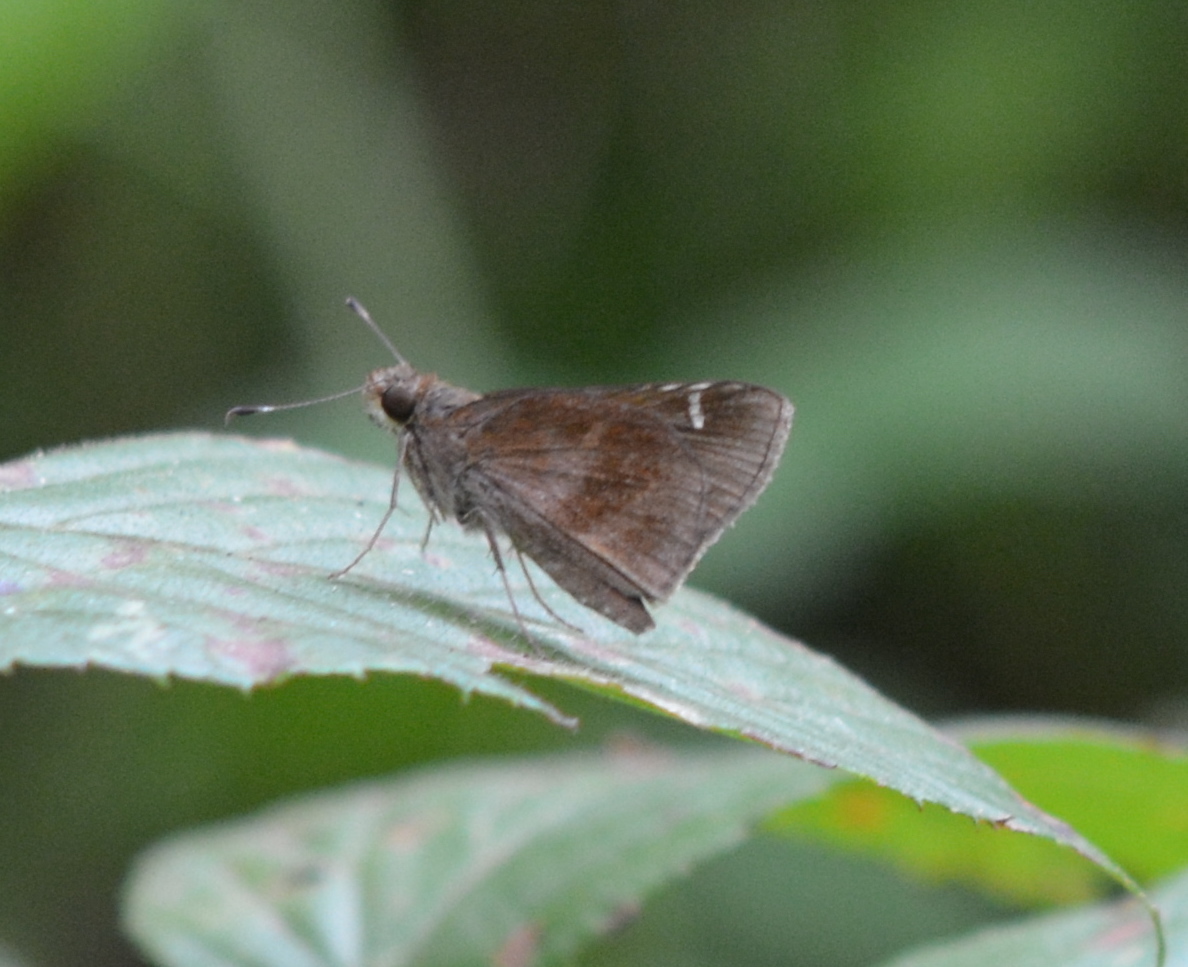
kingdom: Animalia
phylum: Arthropoda
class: Insecta
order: Lepidoptera
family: Hesperiidae
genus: Lerema
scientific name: Lerema accius
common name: Clouded skipper
